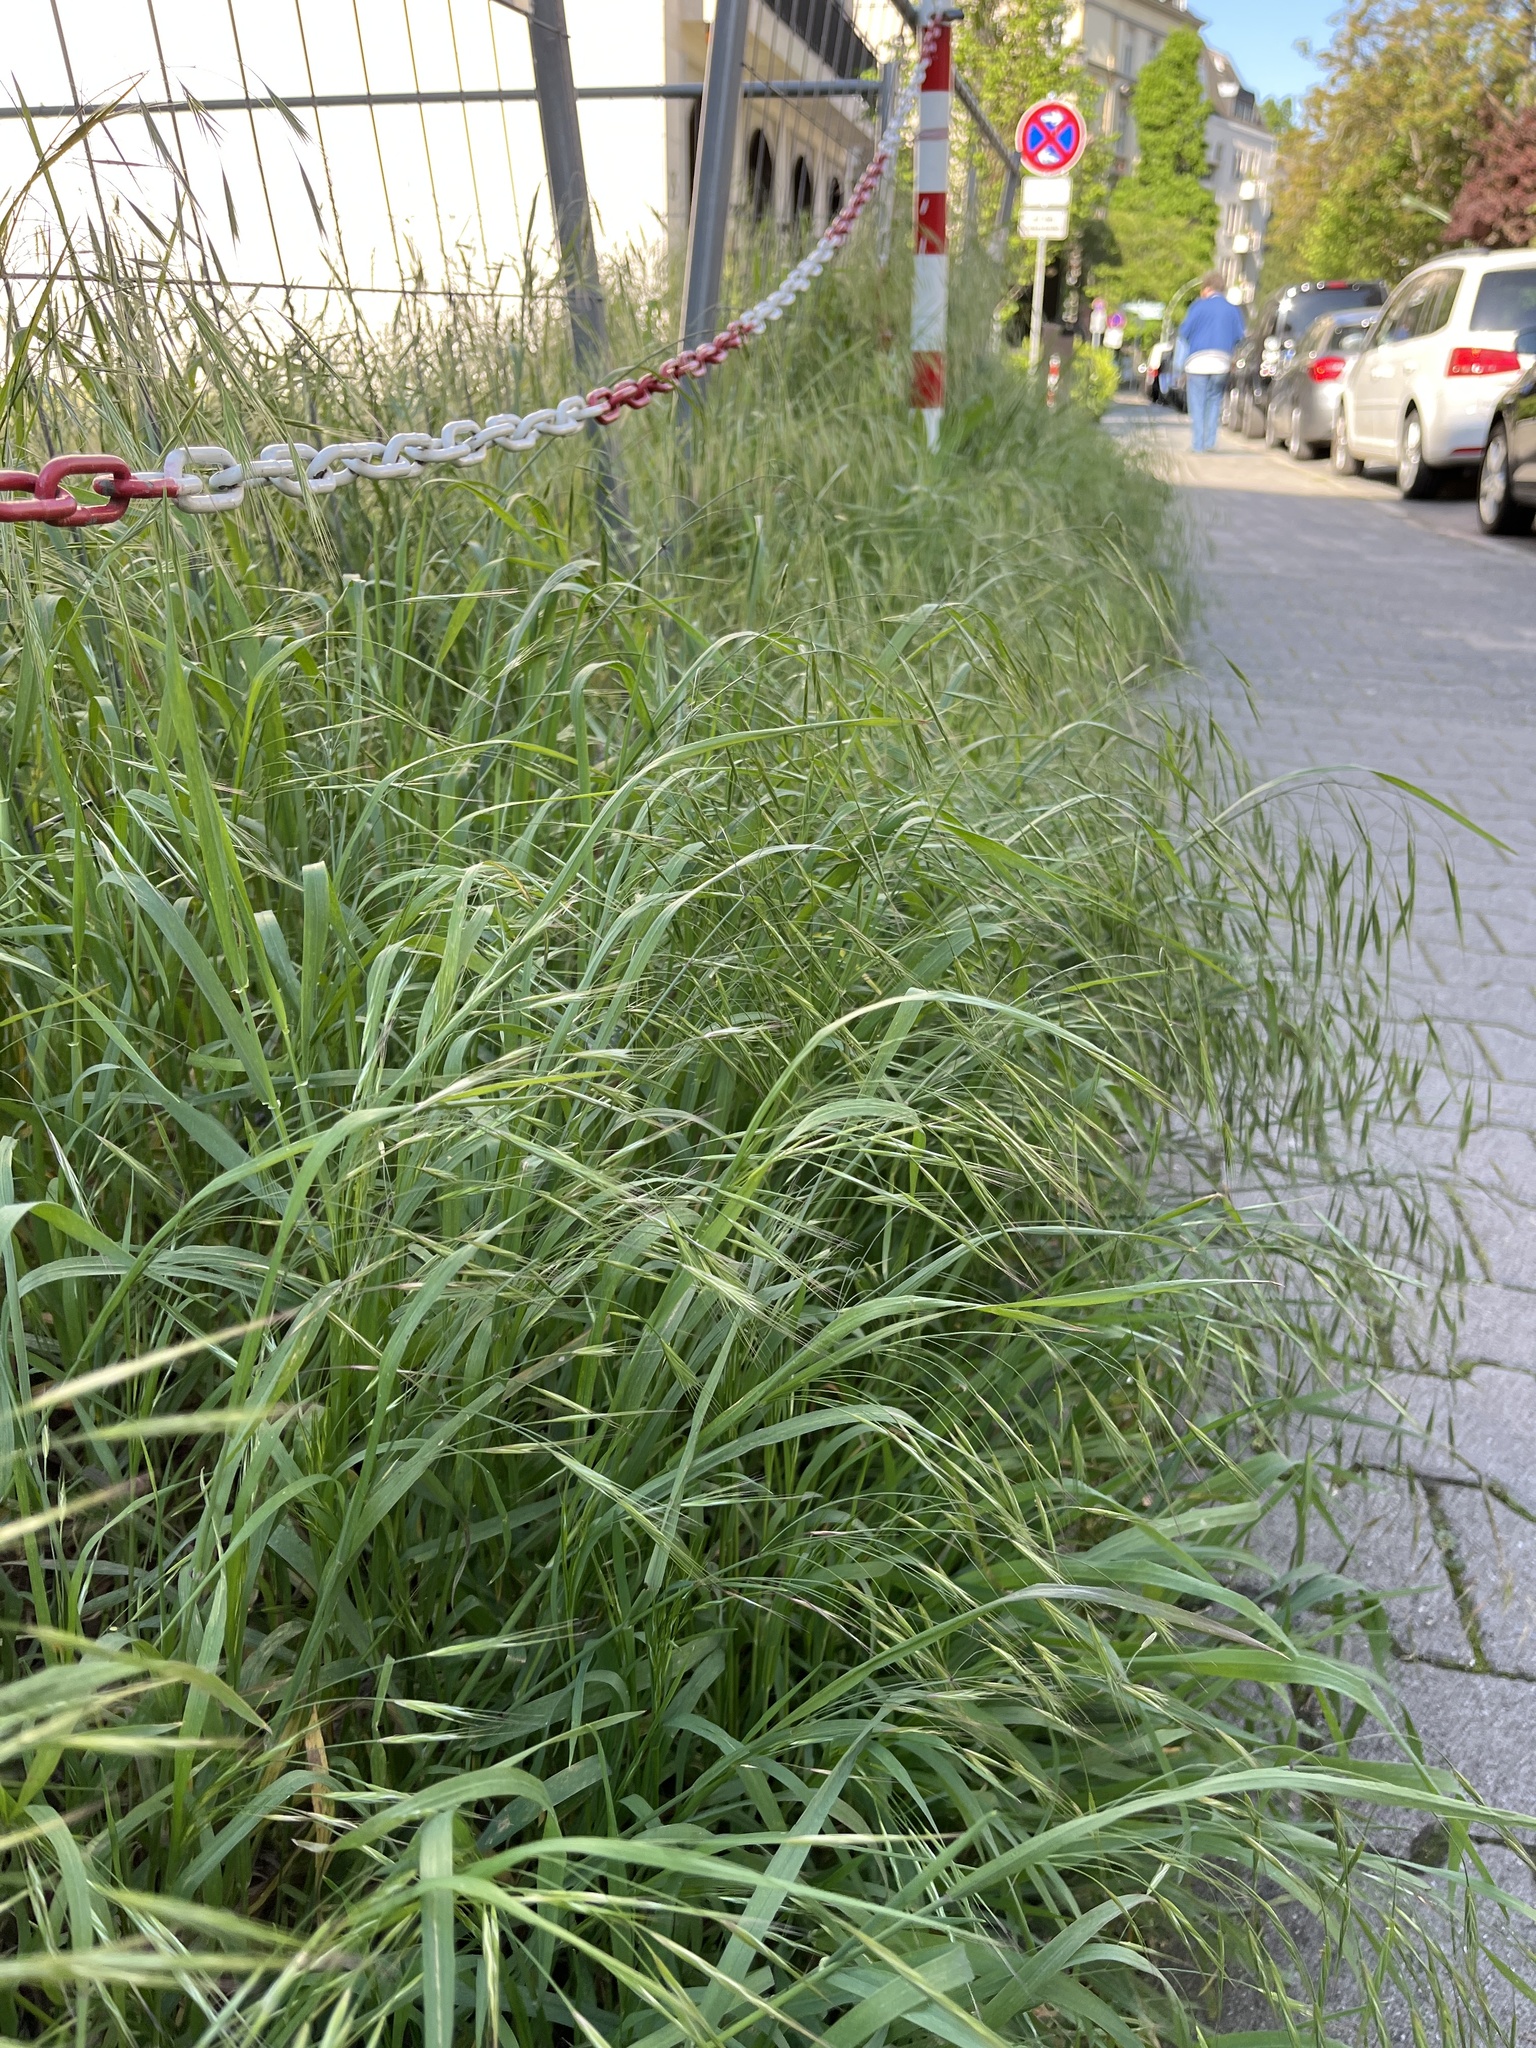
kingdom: Plantae
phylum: Tracheophyta
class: Liliopsida
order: Poales
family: Poaceae
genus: Bromus
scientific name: Bromus sterilis
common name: Poverty brome
